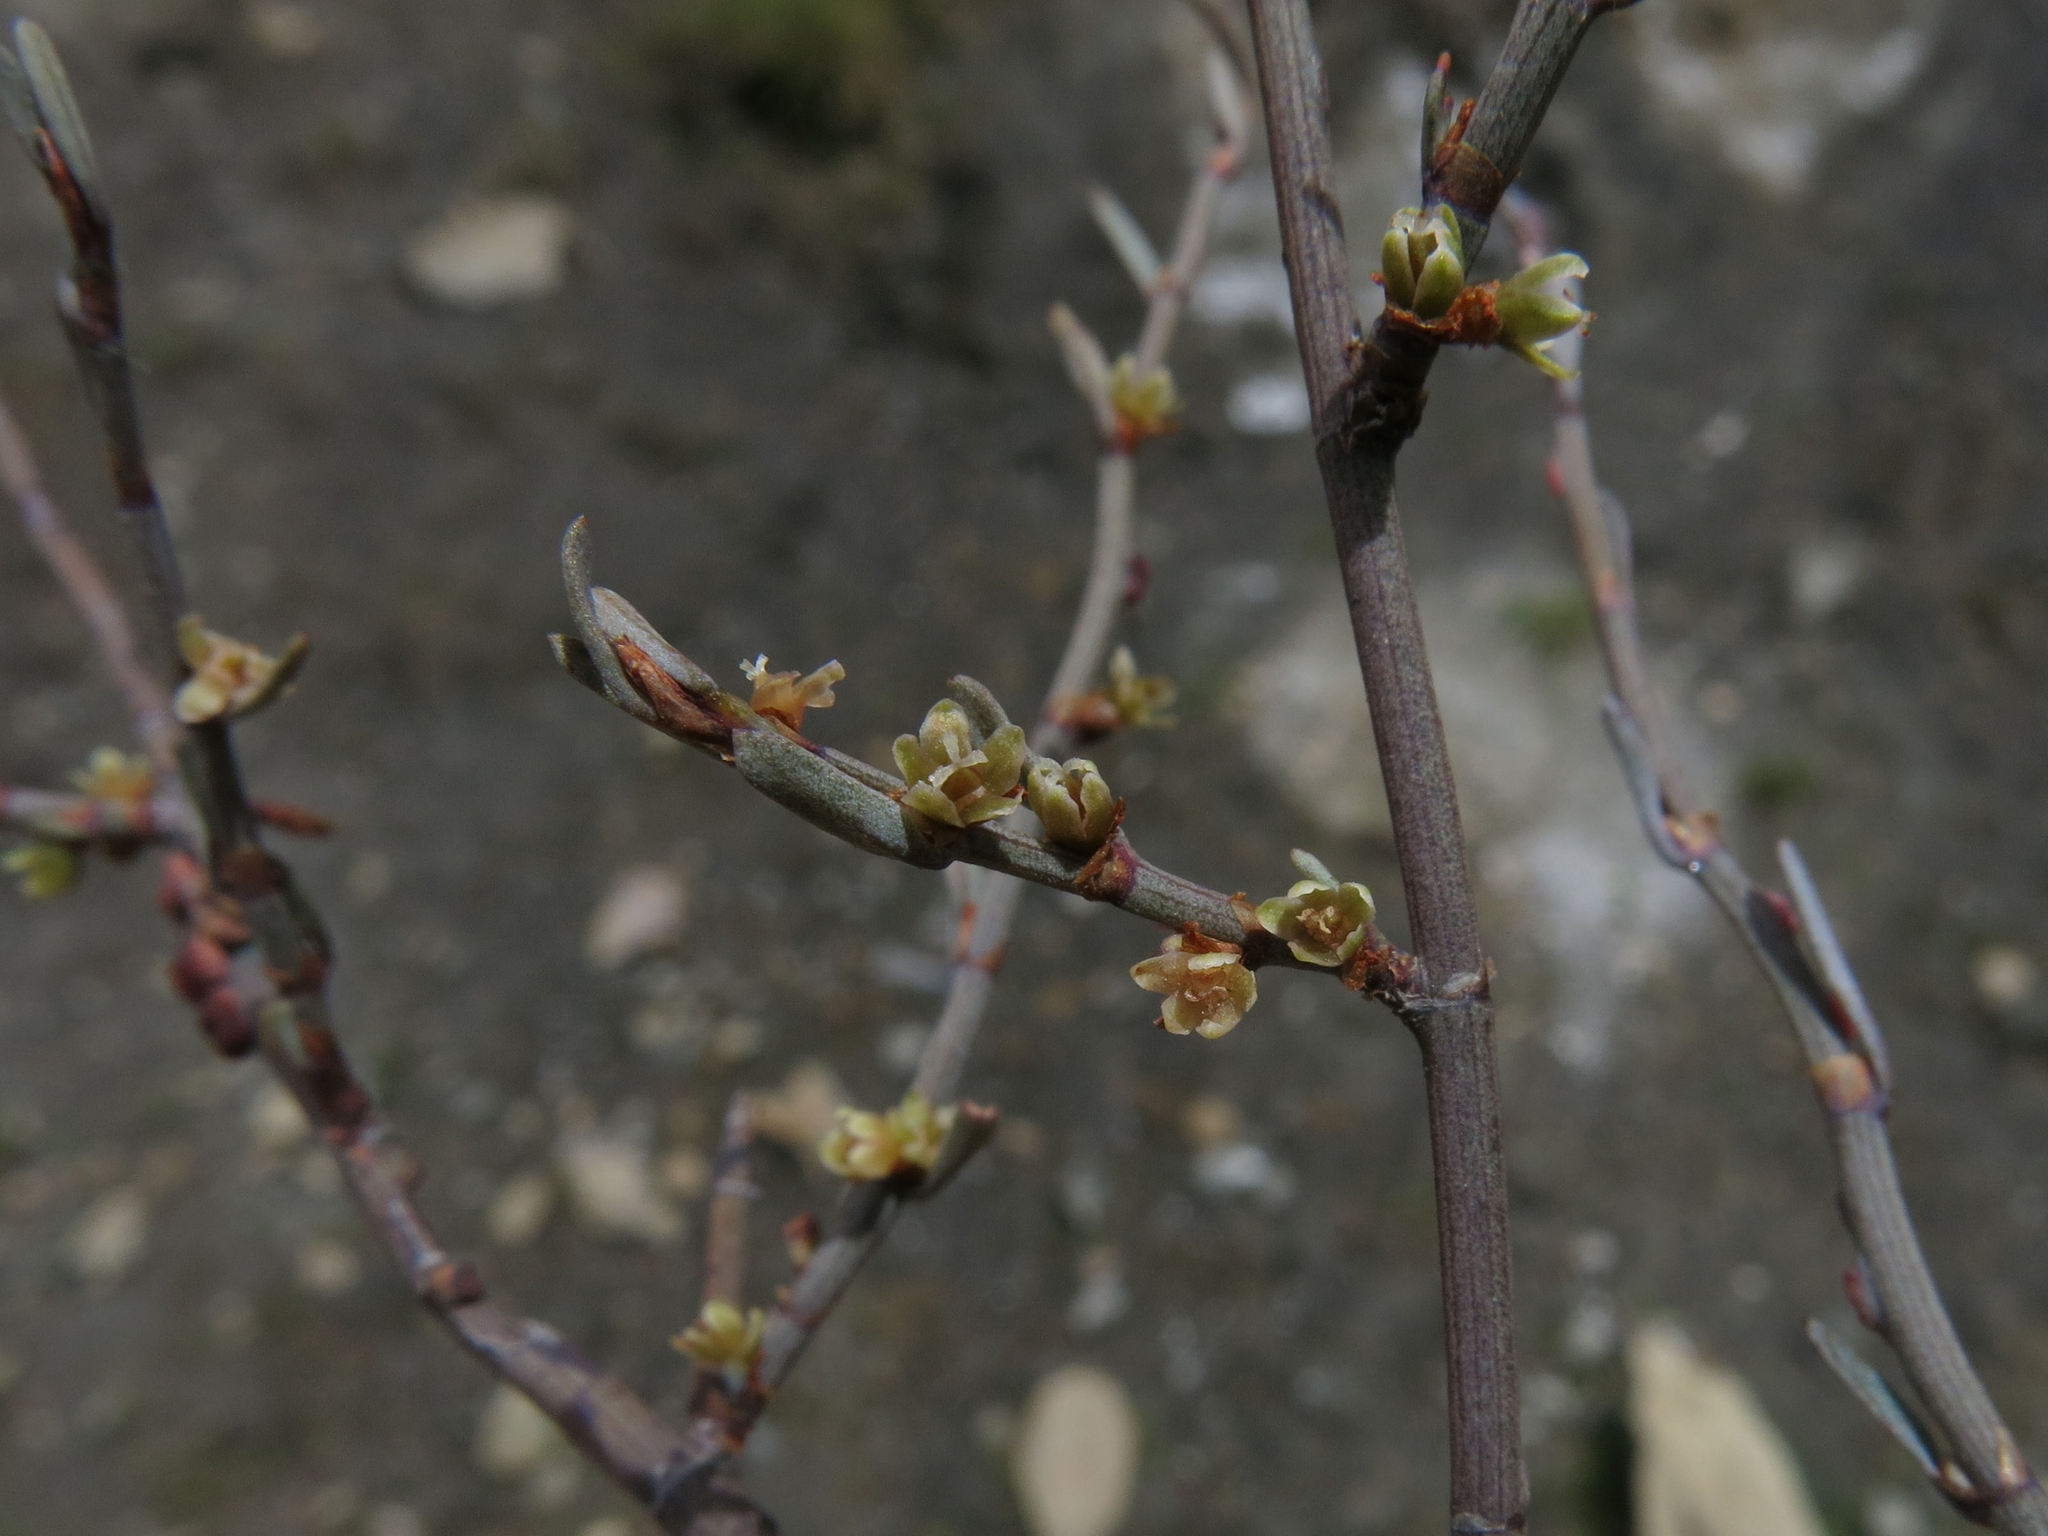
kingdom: Plantae
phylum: Tracheophyta
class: Magnoliopsida
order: Caryophyllales
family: Polygonaceae
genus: Muehlenbeckia
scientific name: Muehlenbeckia ephedroides
